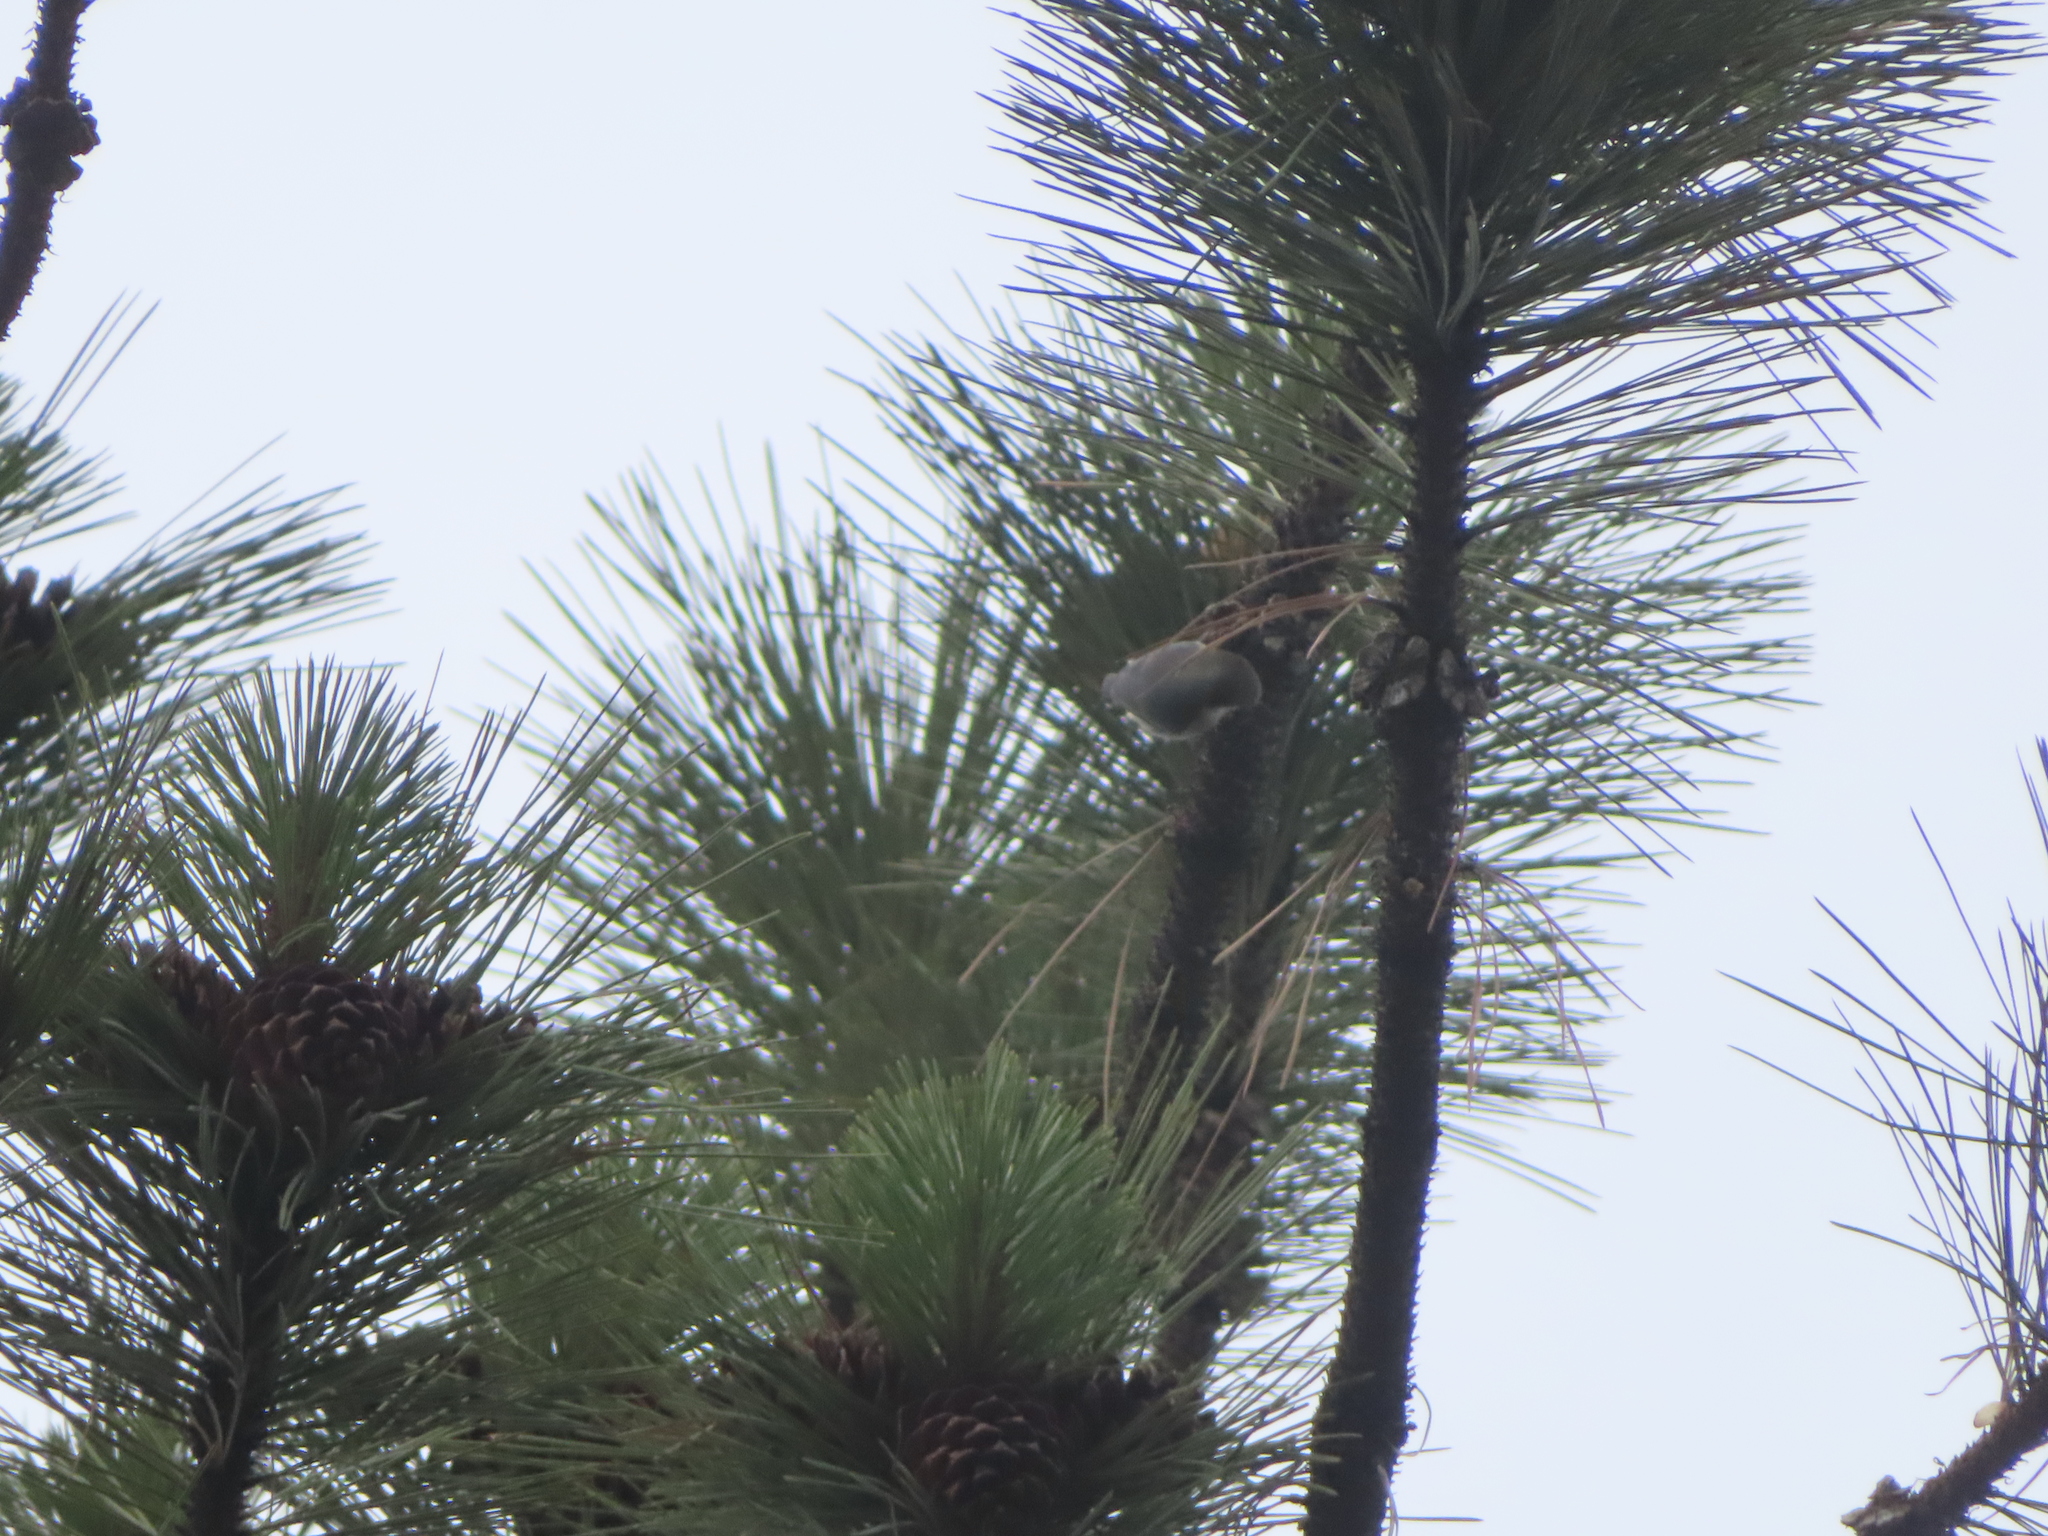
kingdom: Animalia
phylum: Chordata
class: Aves
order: Passeriformes
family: Sittidae
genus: Sitta
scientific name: Sitta pygmaea
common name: Pygmy nuthatch
